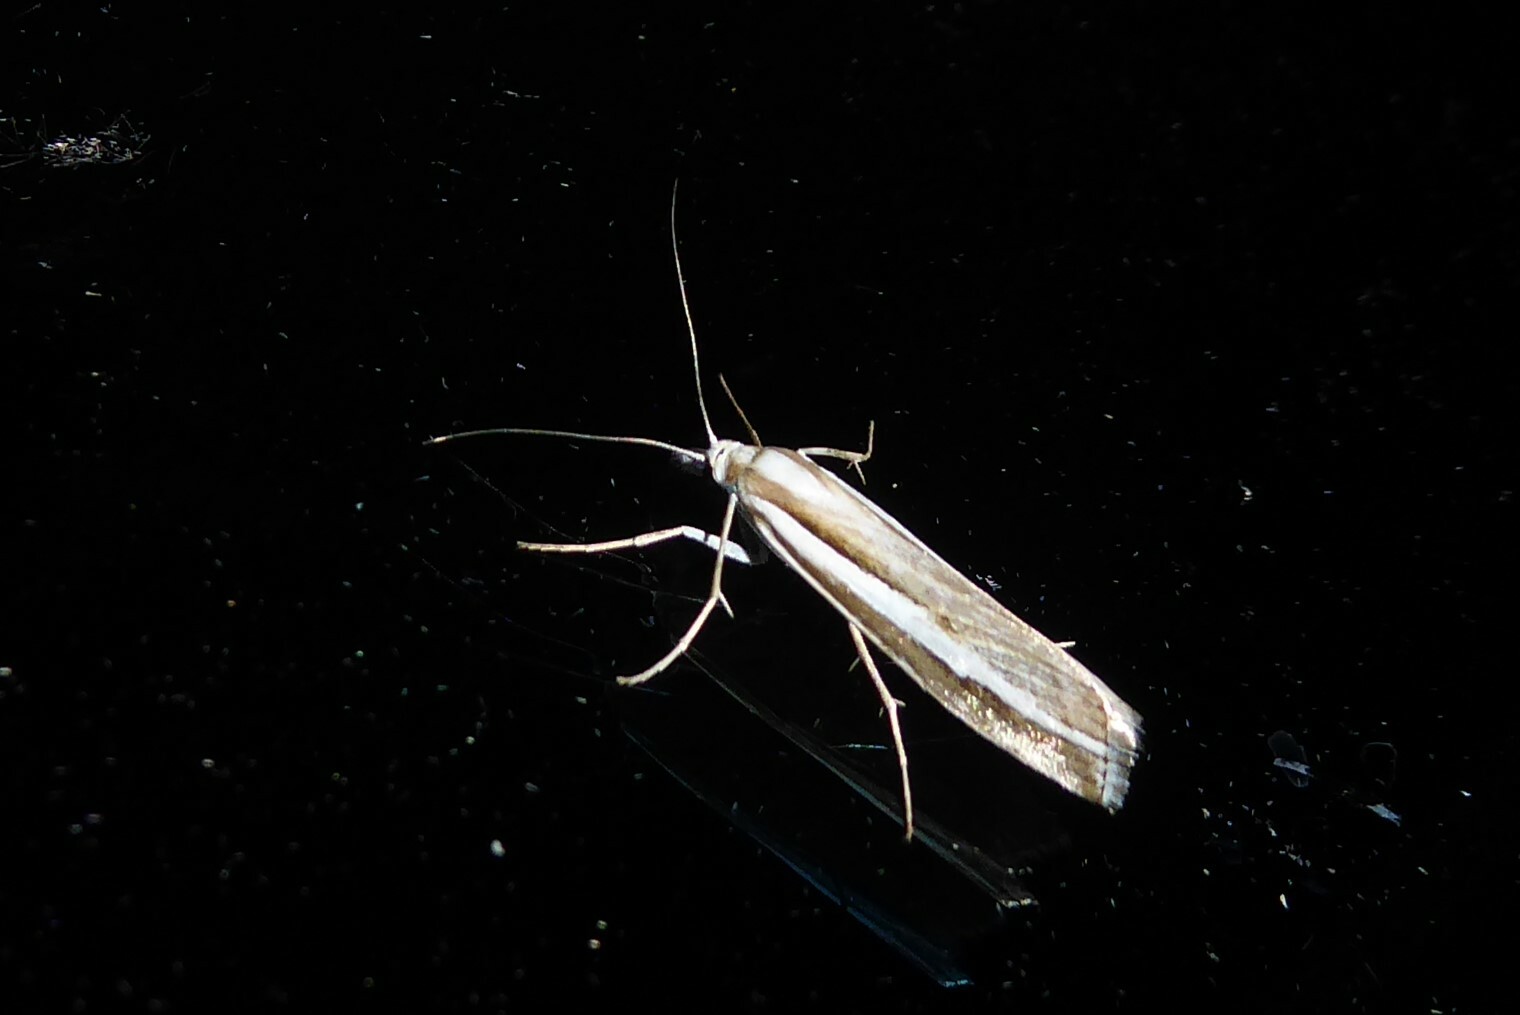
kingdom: Animalia
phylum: Arthropoda
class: Insecta
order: Lepidoptera
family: Crambidae
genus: Orocrambus
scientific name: Orocrambus vittellus
